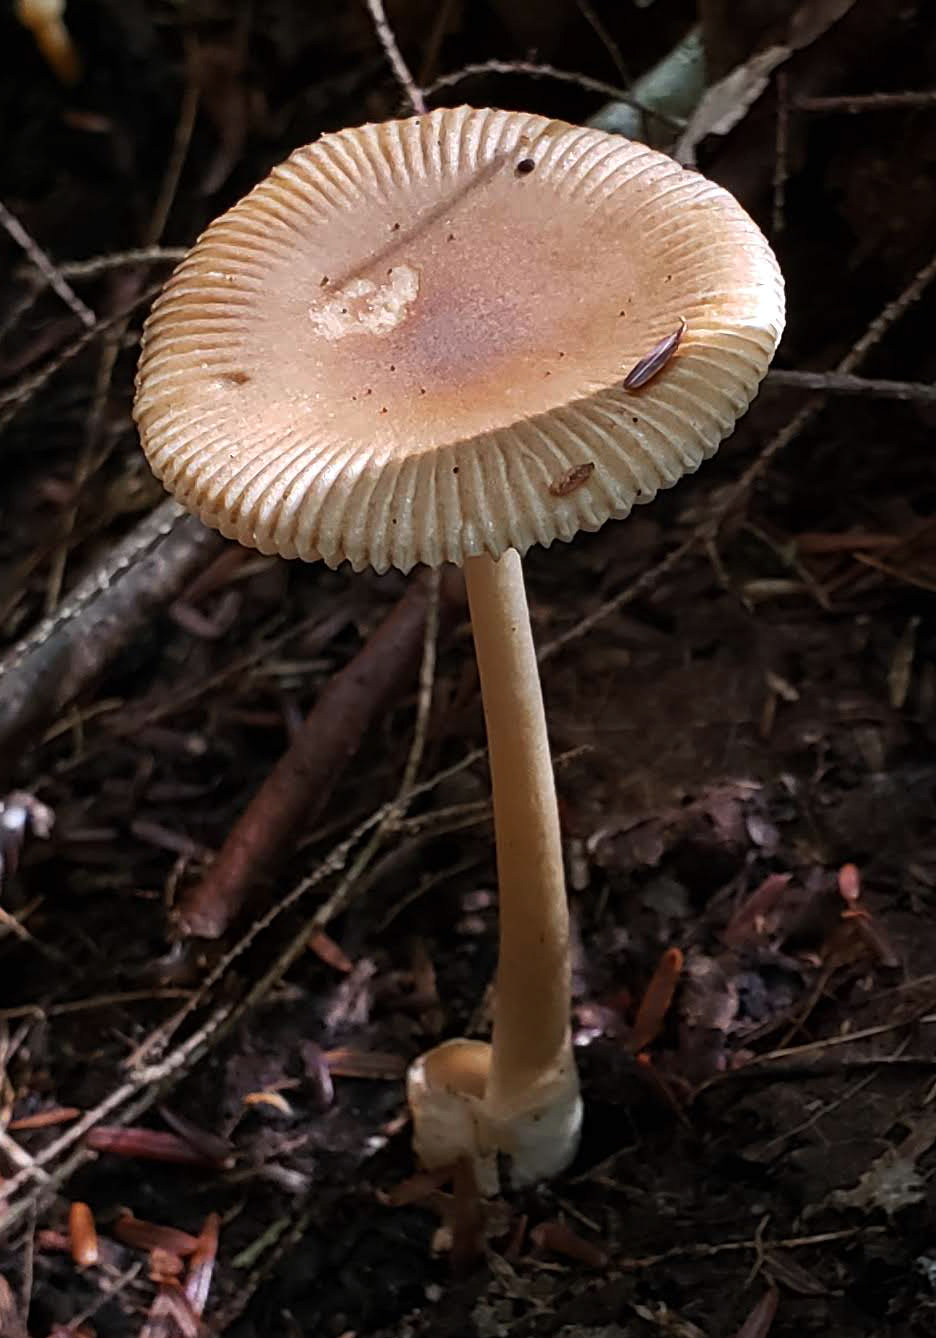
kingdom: Fungi
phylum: Basidiomycota
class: Agaricomycetes
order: Agaricales
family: Amanitaceae
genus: Amanita
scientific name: Amanita fulva
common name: Tawny grisette
